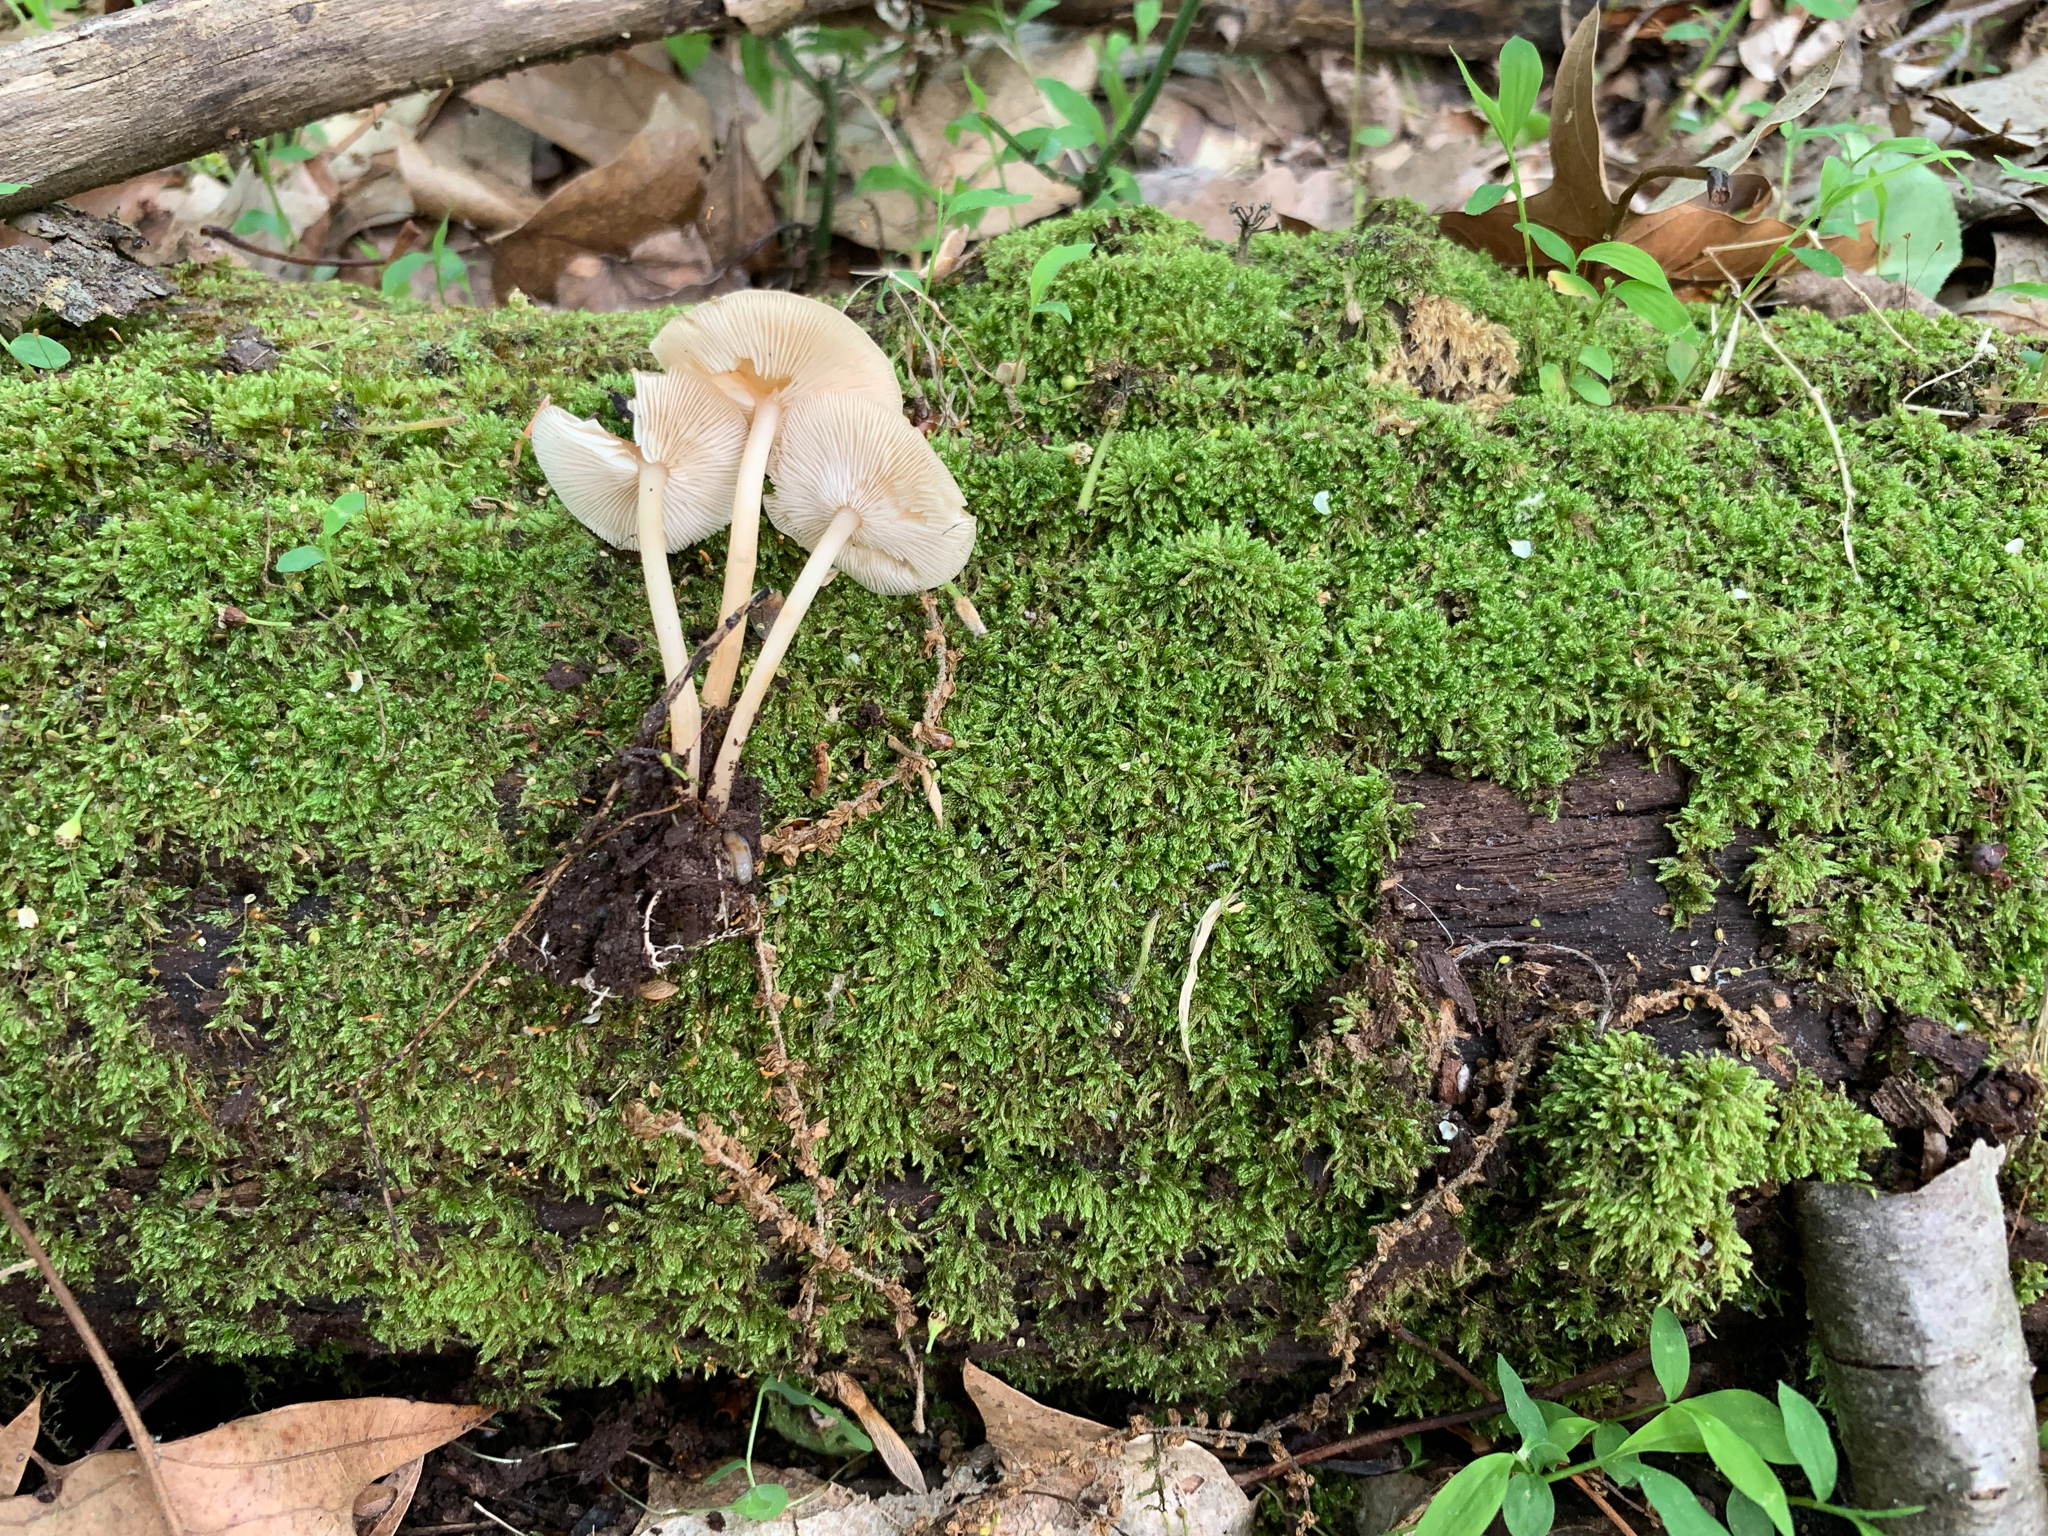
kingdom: Fungi
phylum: Basidiomycota
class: Agaricomycetes
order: Agaricales
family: Omphalotaceae
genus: Gymnopus
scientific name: Gymnopus dryophilus
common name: Penny top
